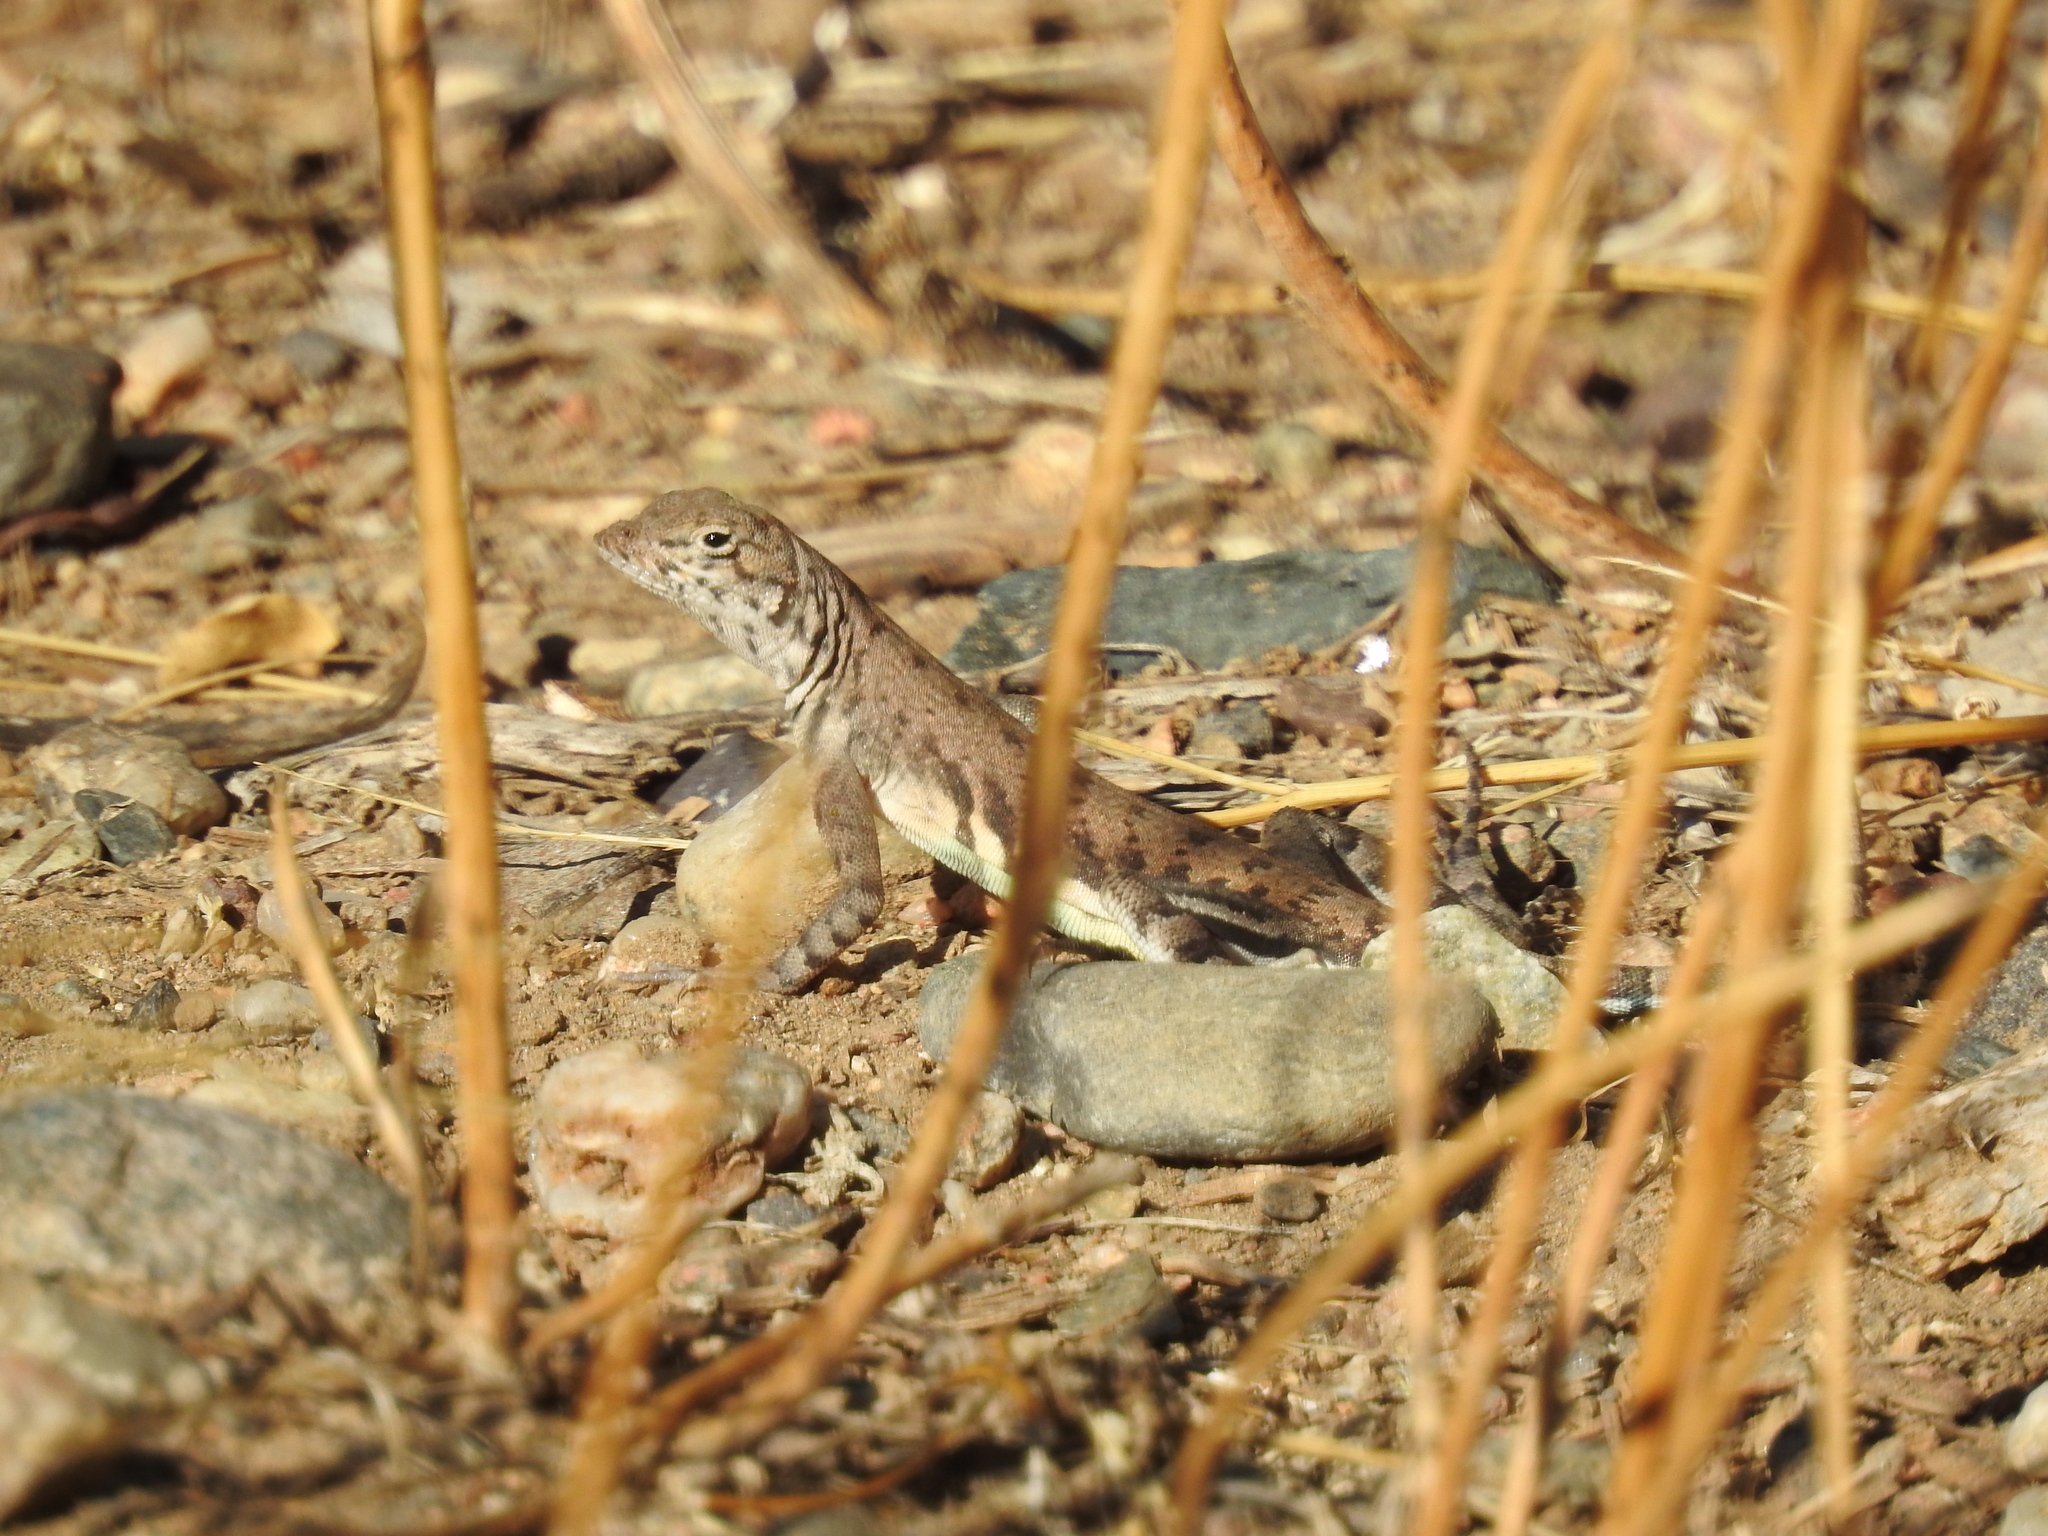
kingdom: Animalia
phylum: Chordata
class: Squamata
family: Phrynosomatidae
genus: Callisaurus
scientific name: Callisaurus draconoides
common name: Zebra-tailed lizard
